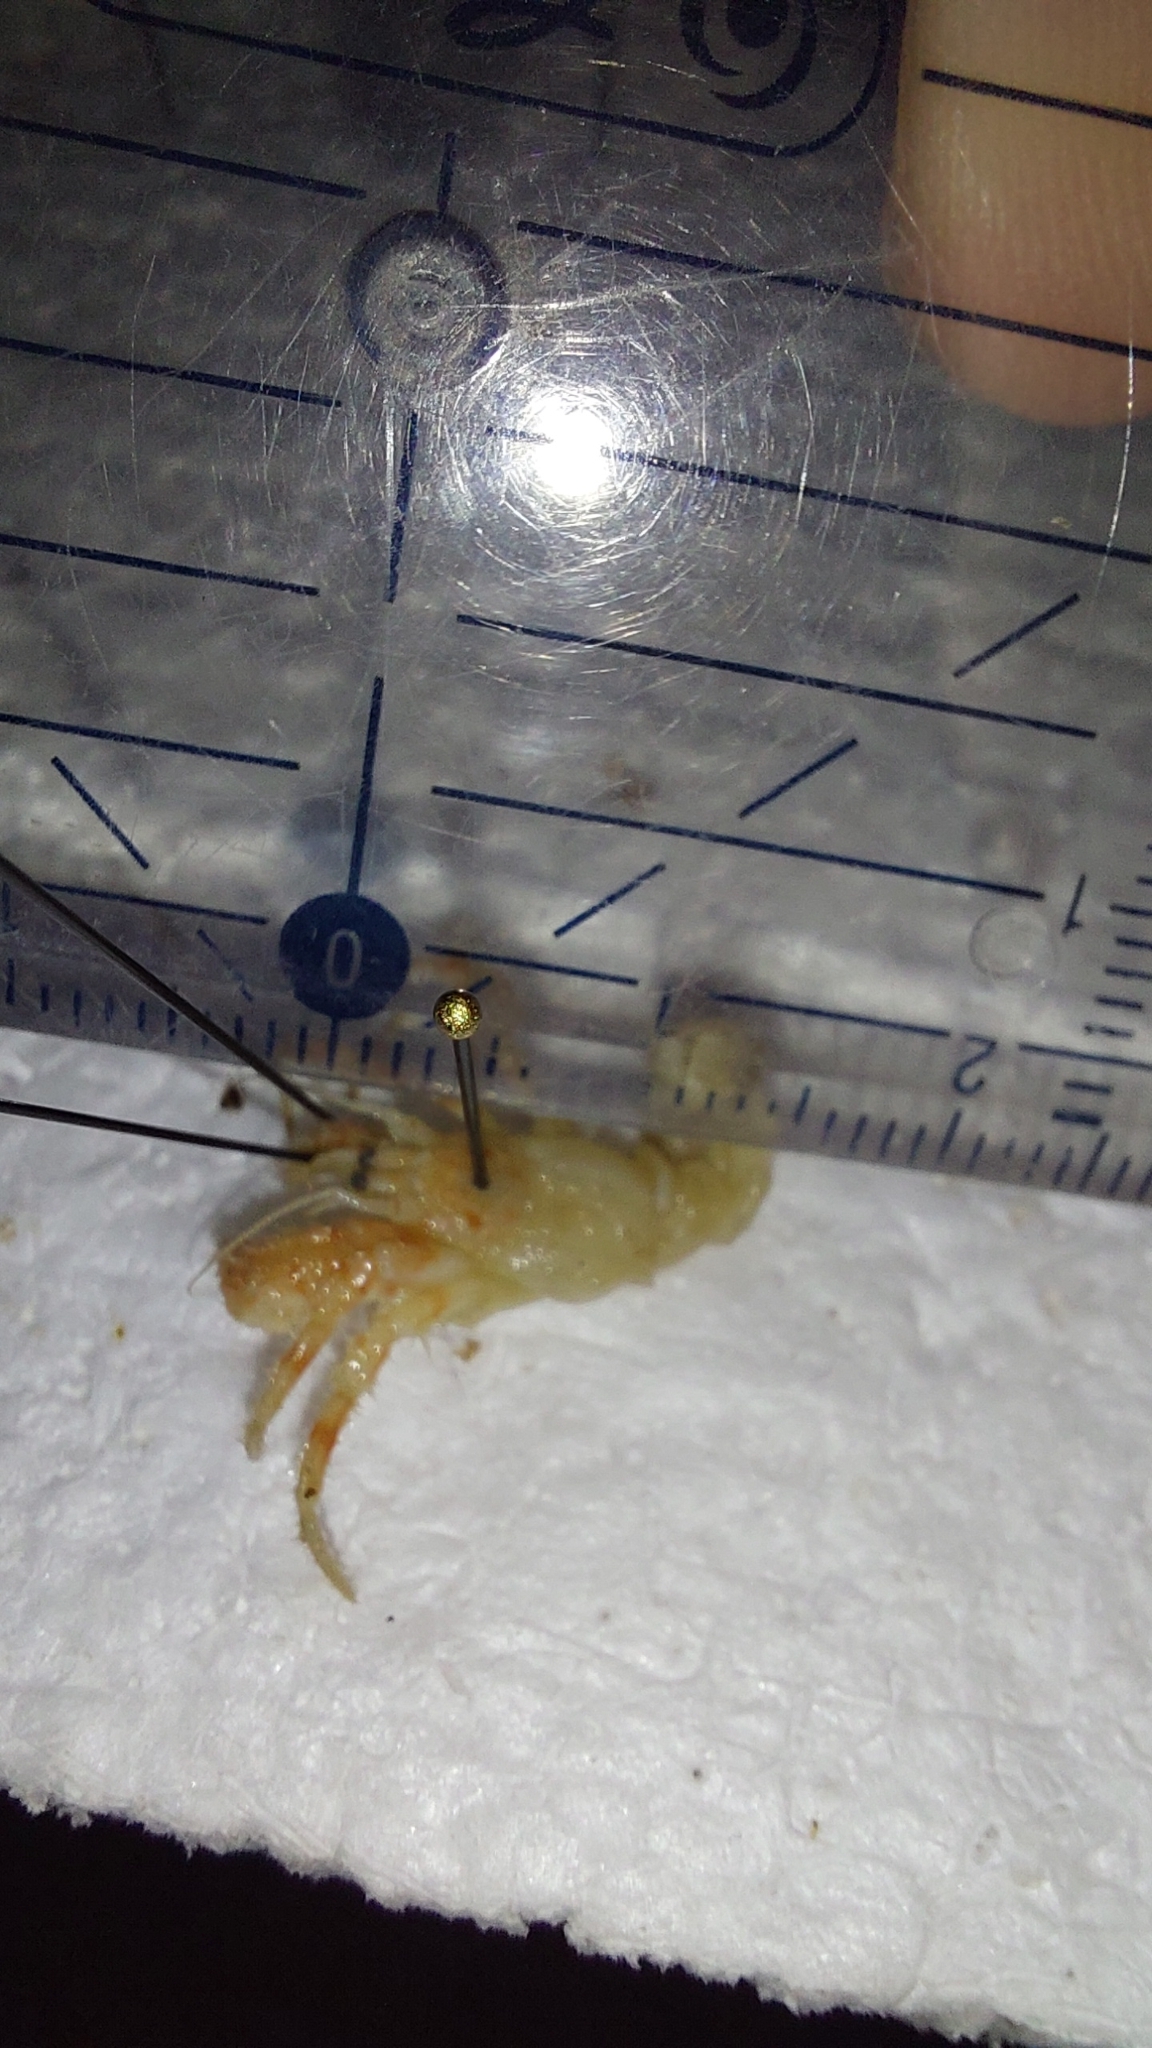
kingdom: Animalia
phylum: Arthropoda
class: Malacostraca
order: Decapoda
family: Diogenidae
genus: Diogenes
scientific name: Diogenes pugilator
